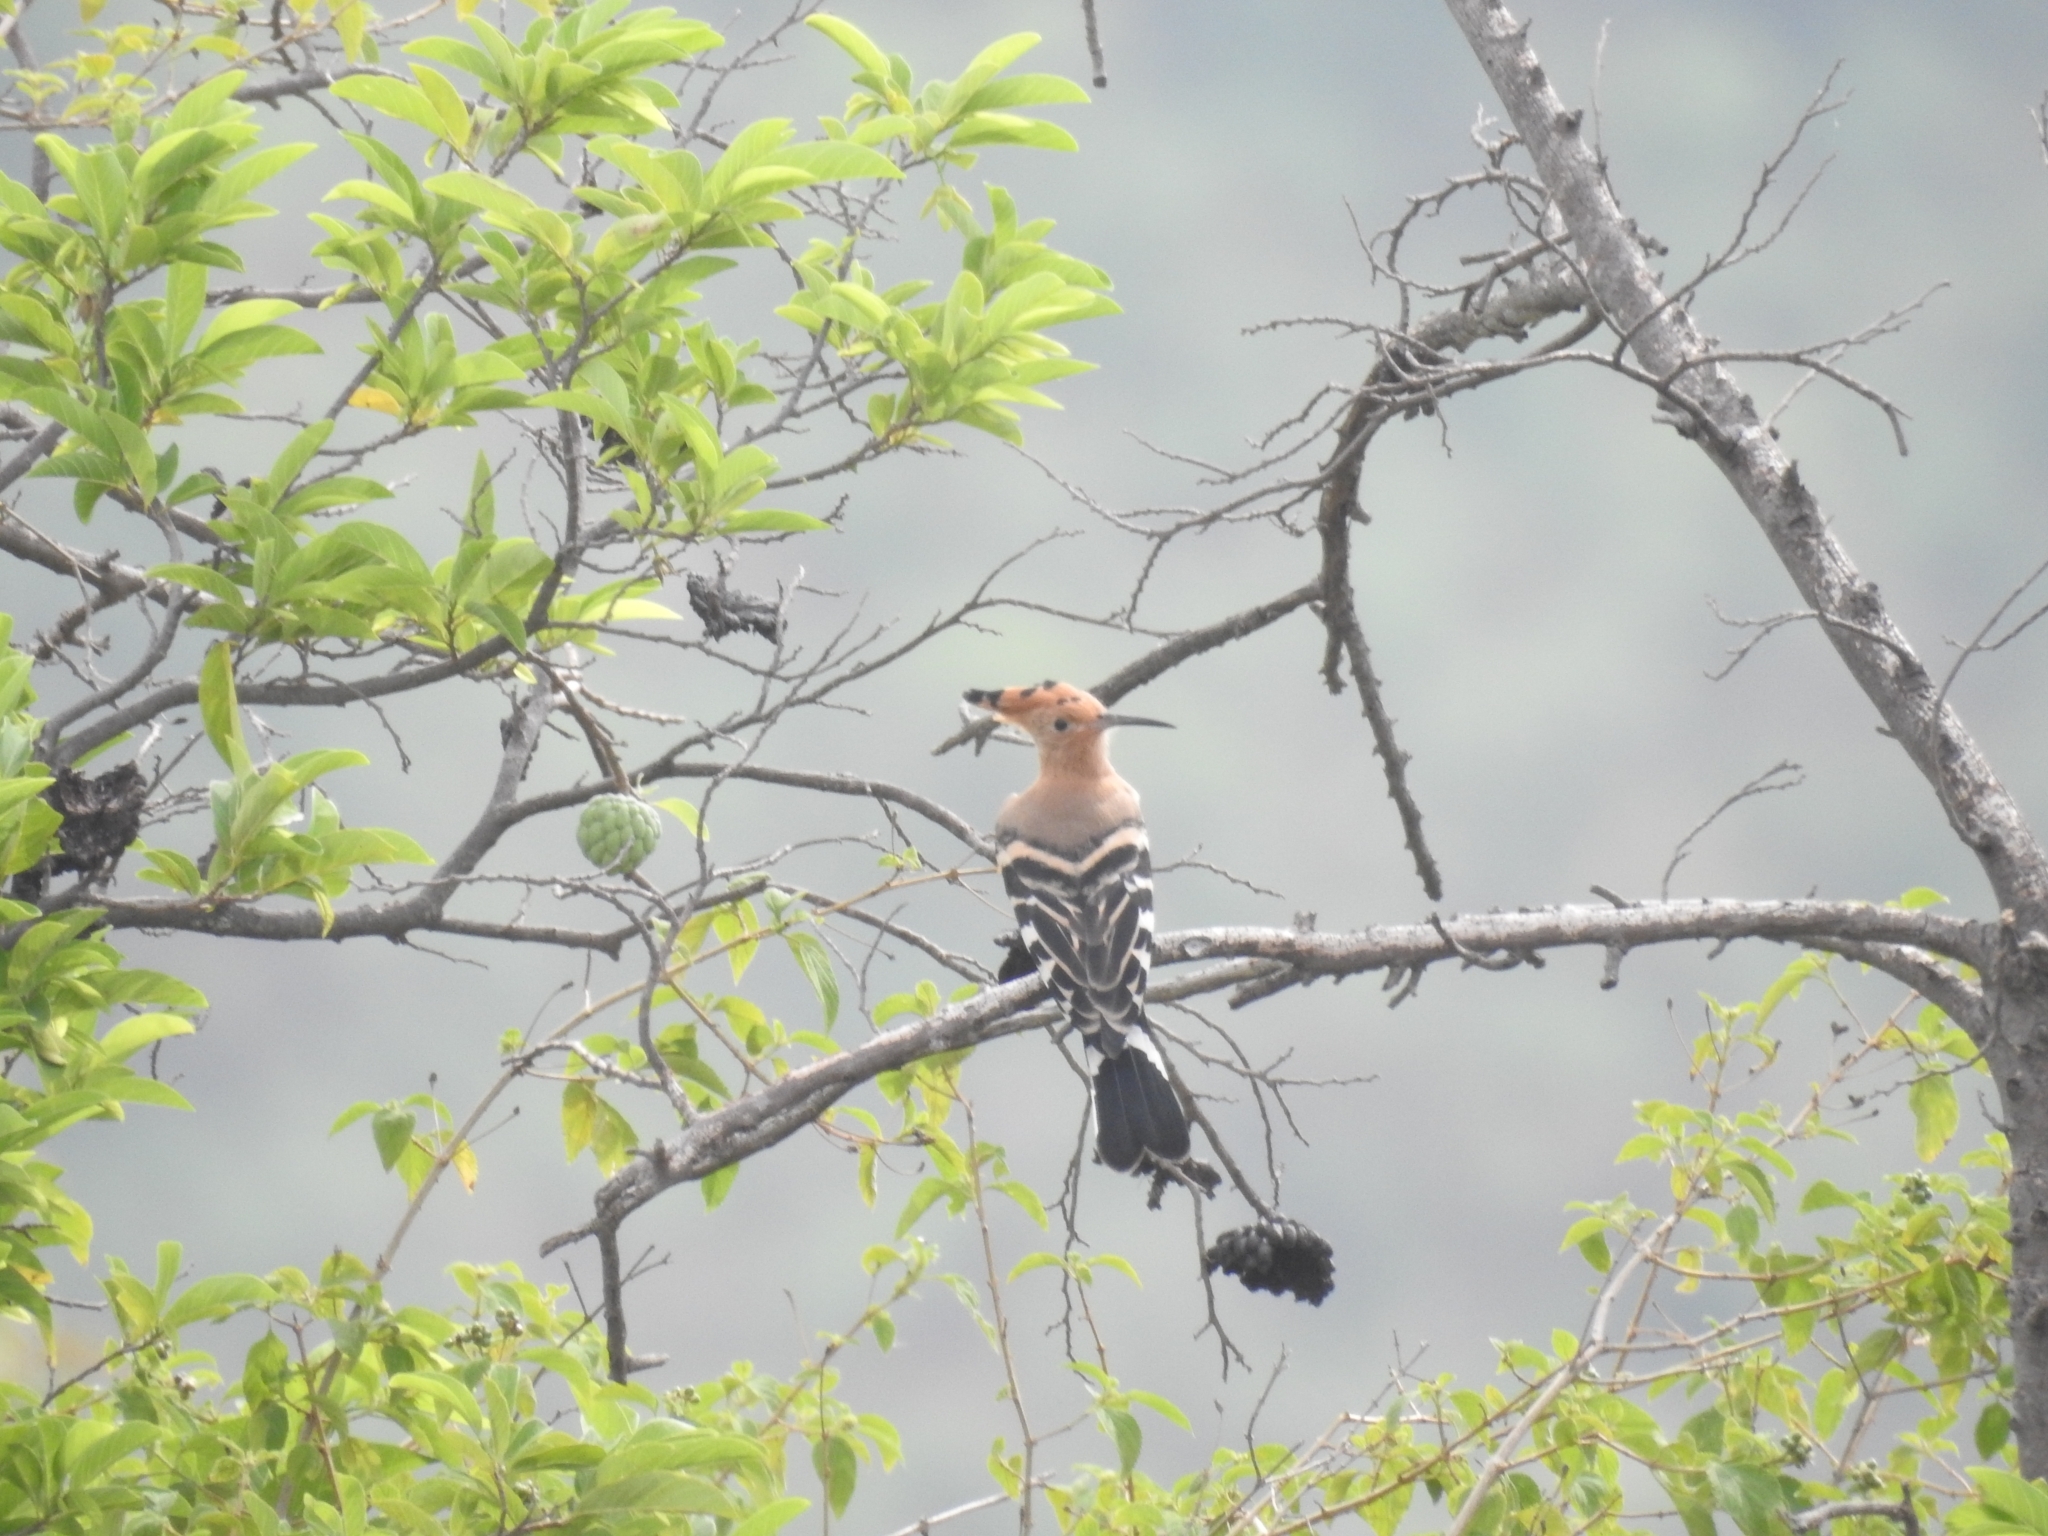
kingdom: Animalia
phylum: Chordata
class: Aves
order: Bucerotiformes
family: Upupidae
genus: Upupa
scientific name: Upupa epops
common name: Eurasian hoopoe
